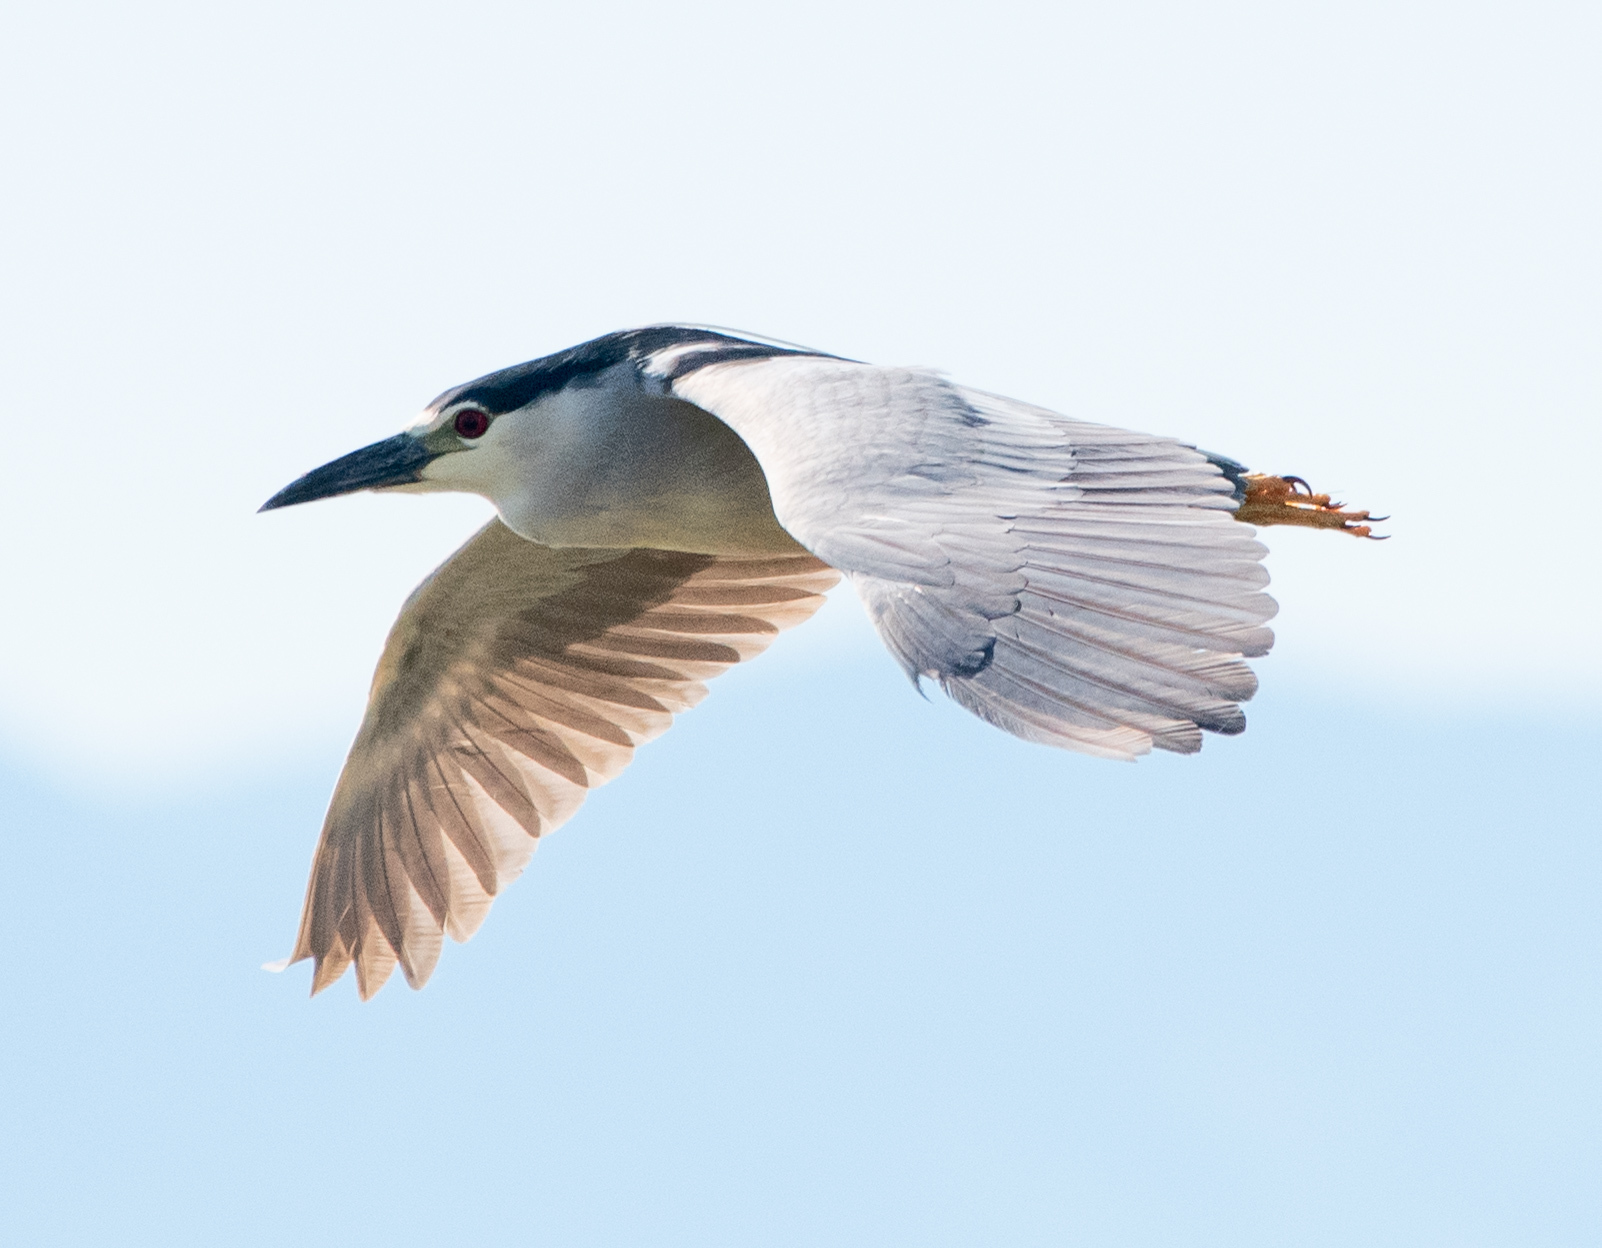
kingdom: Animalia
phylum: Chordata
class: Aves
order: Pelecaniformes
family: Ardeidae
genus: Nycticorax
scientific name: Nycticorax nycticorax
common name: Black-crowned night heron
